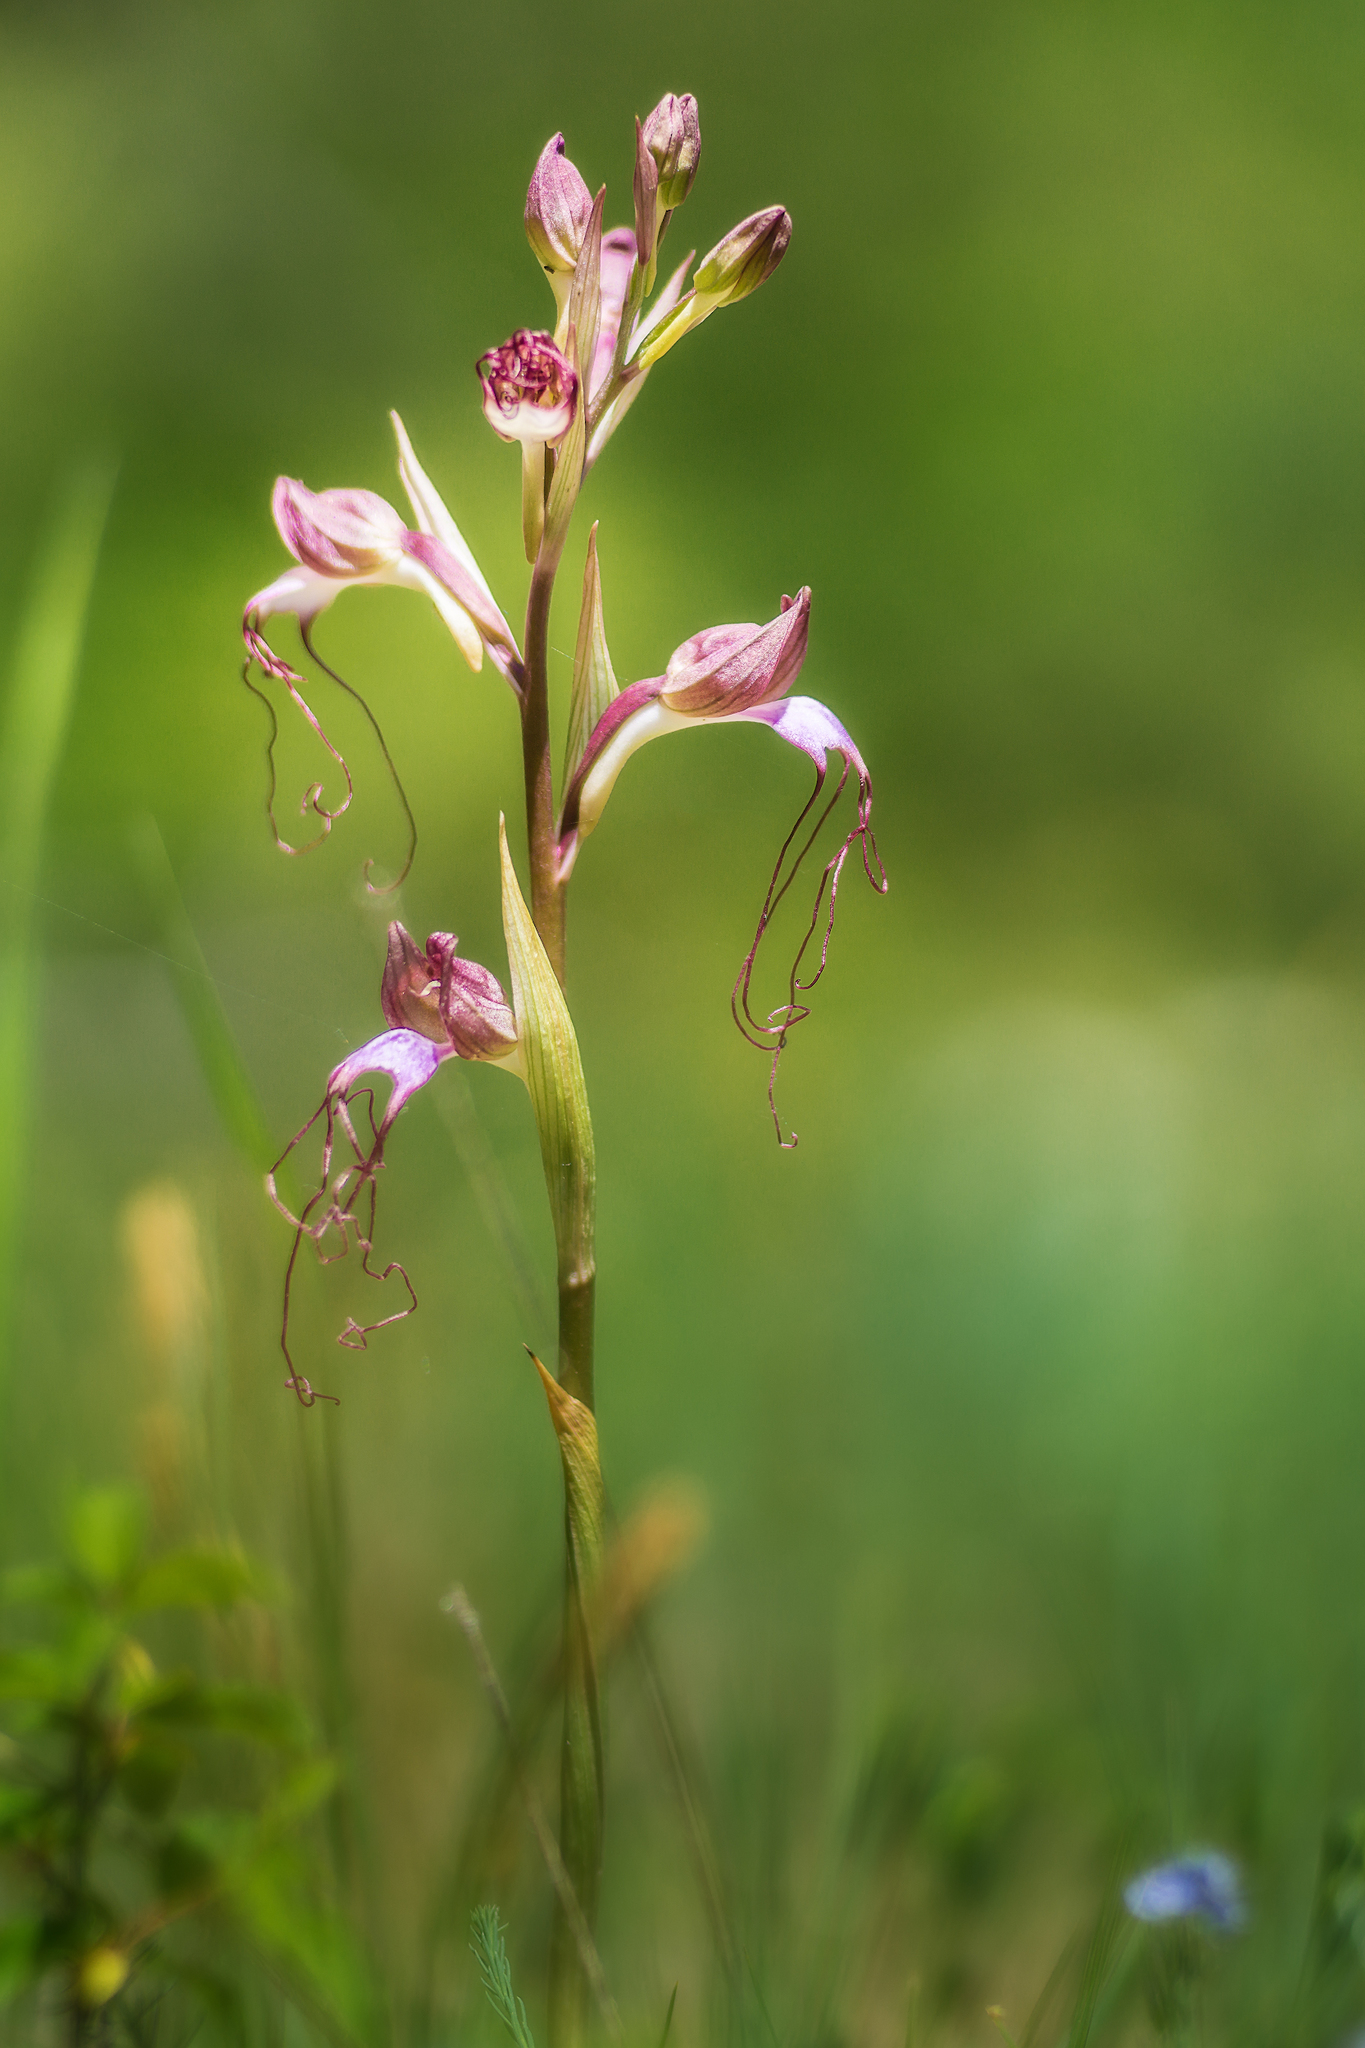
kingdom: Plantae
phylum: Tracheophyta
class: Liliopsida
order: Asparagales
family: Orchidaceae
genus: Himantoglossum
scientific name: Himantoglossum comperianum
